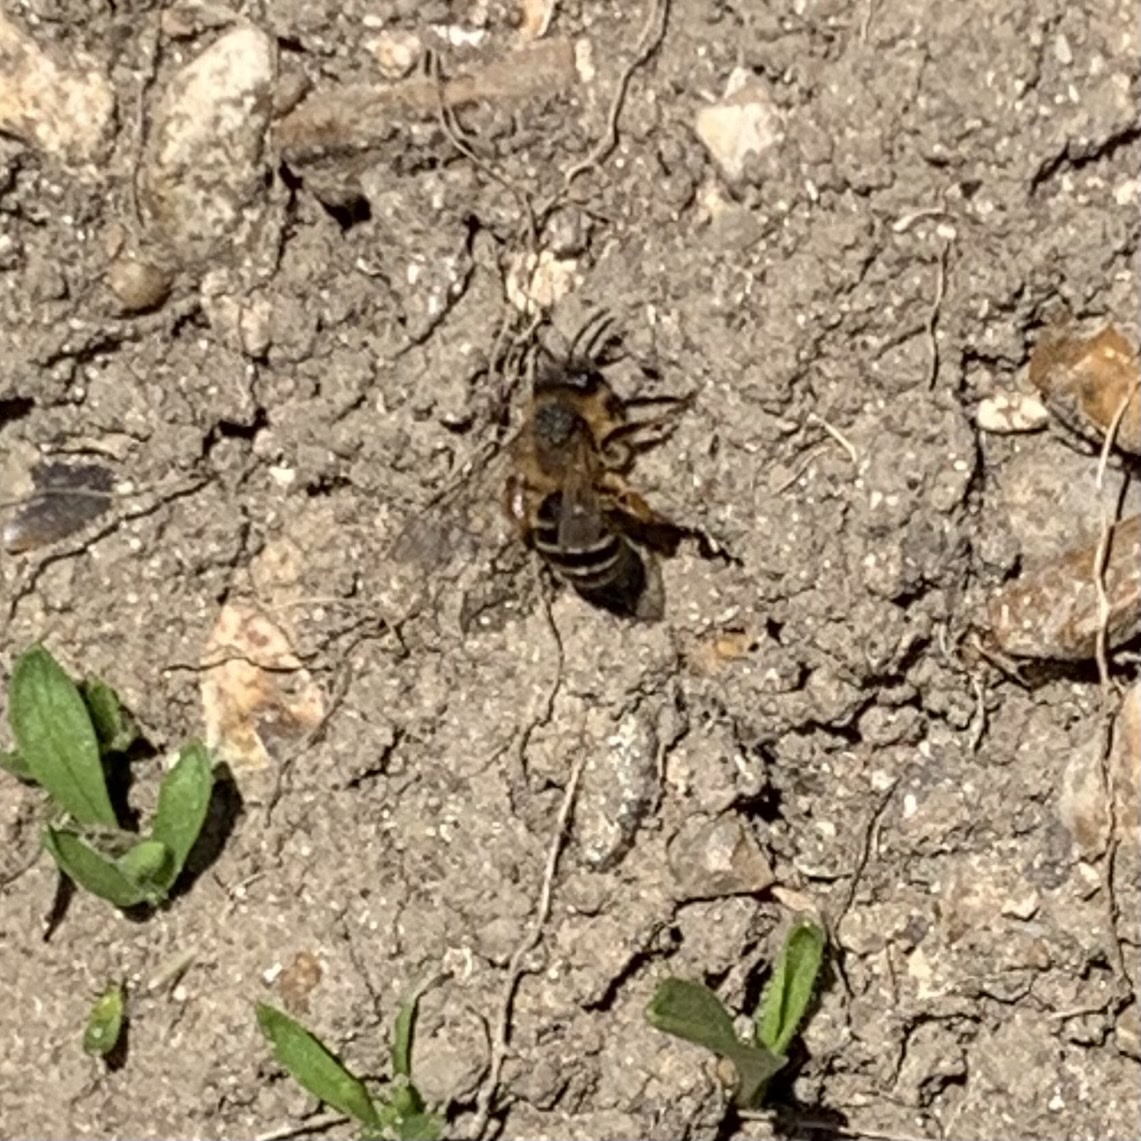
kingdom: Animalia
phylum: Arthropoda
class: Insecta
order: Hymenoptera
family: Andrenidae
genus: Andrena
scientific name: Andrena flavipes
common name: Yellow-legged mining bee
